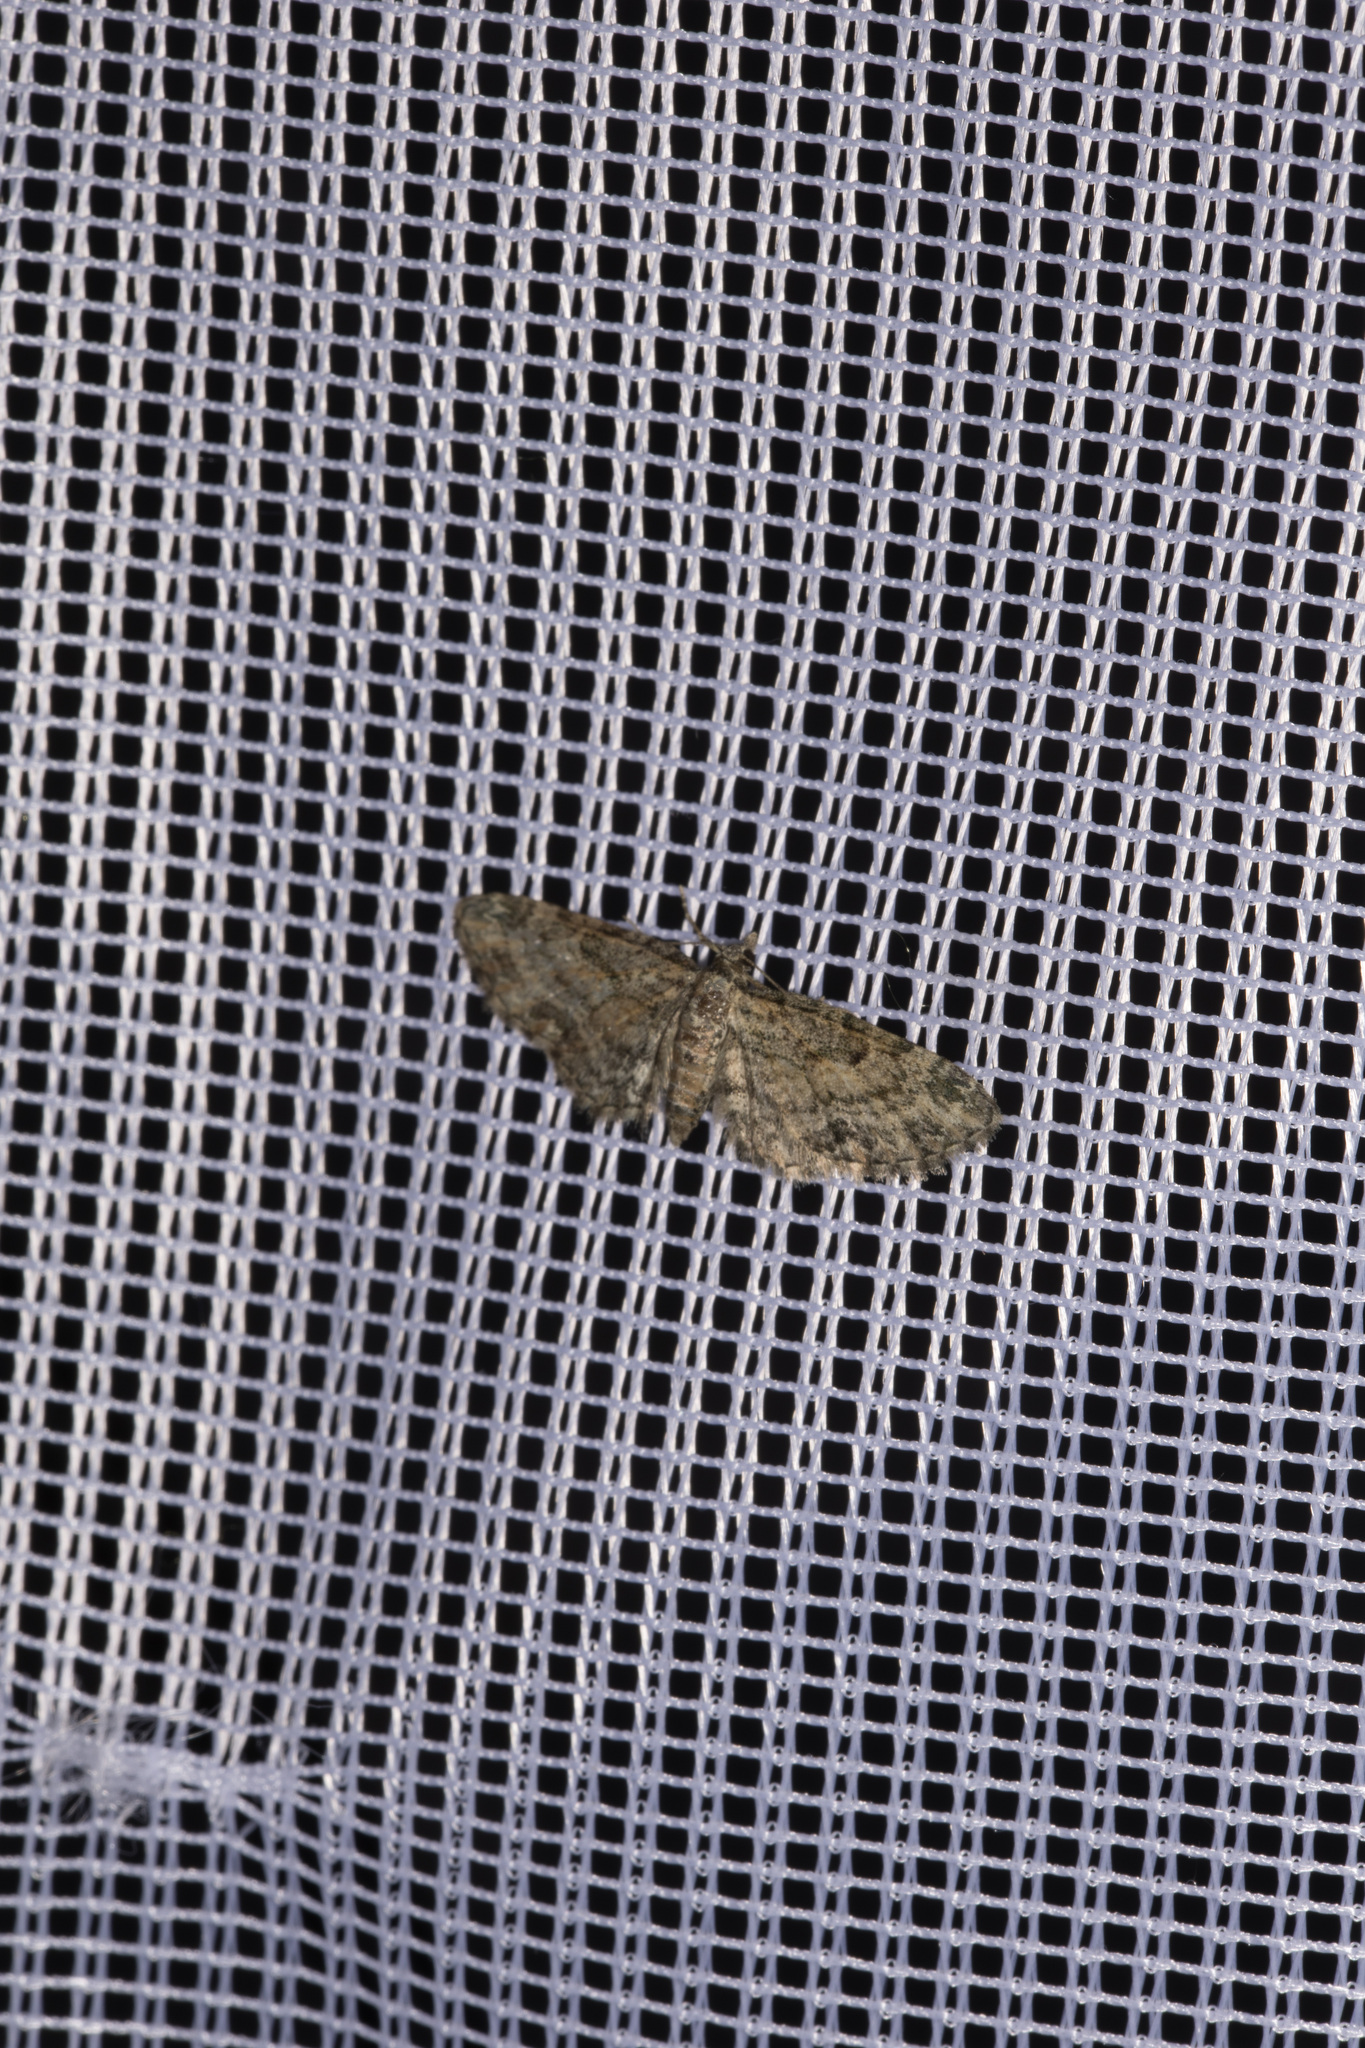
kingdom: Animalia
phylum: Arthropoda
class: Insecta
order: Lepidoptera
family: Geometridae
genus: Eupithecia
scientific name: Eupithecia inturbata
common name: Maple pug
